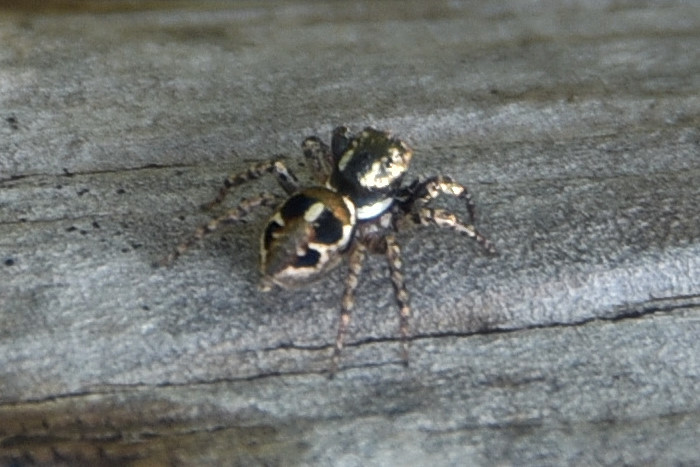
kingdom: Animalia
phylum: Arthropoda
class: Arachnida
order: Araneae
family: Salticidae
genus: Anasaitis
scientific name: Anasaitis canosa
